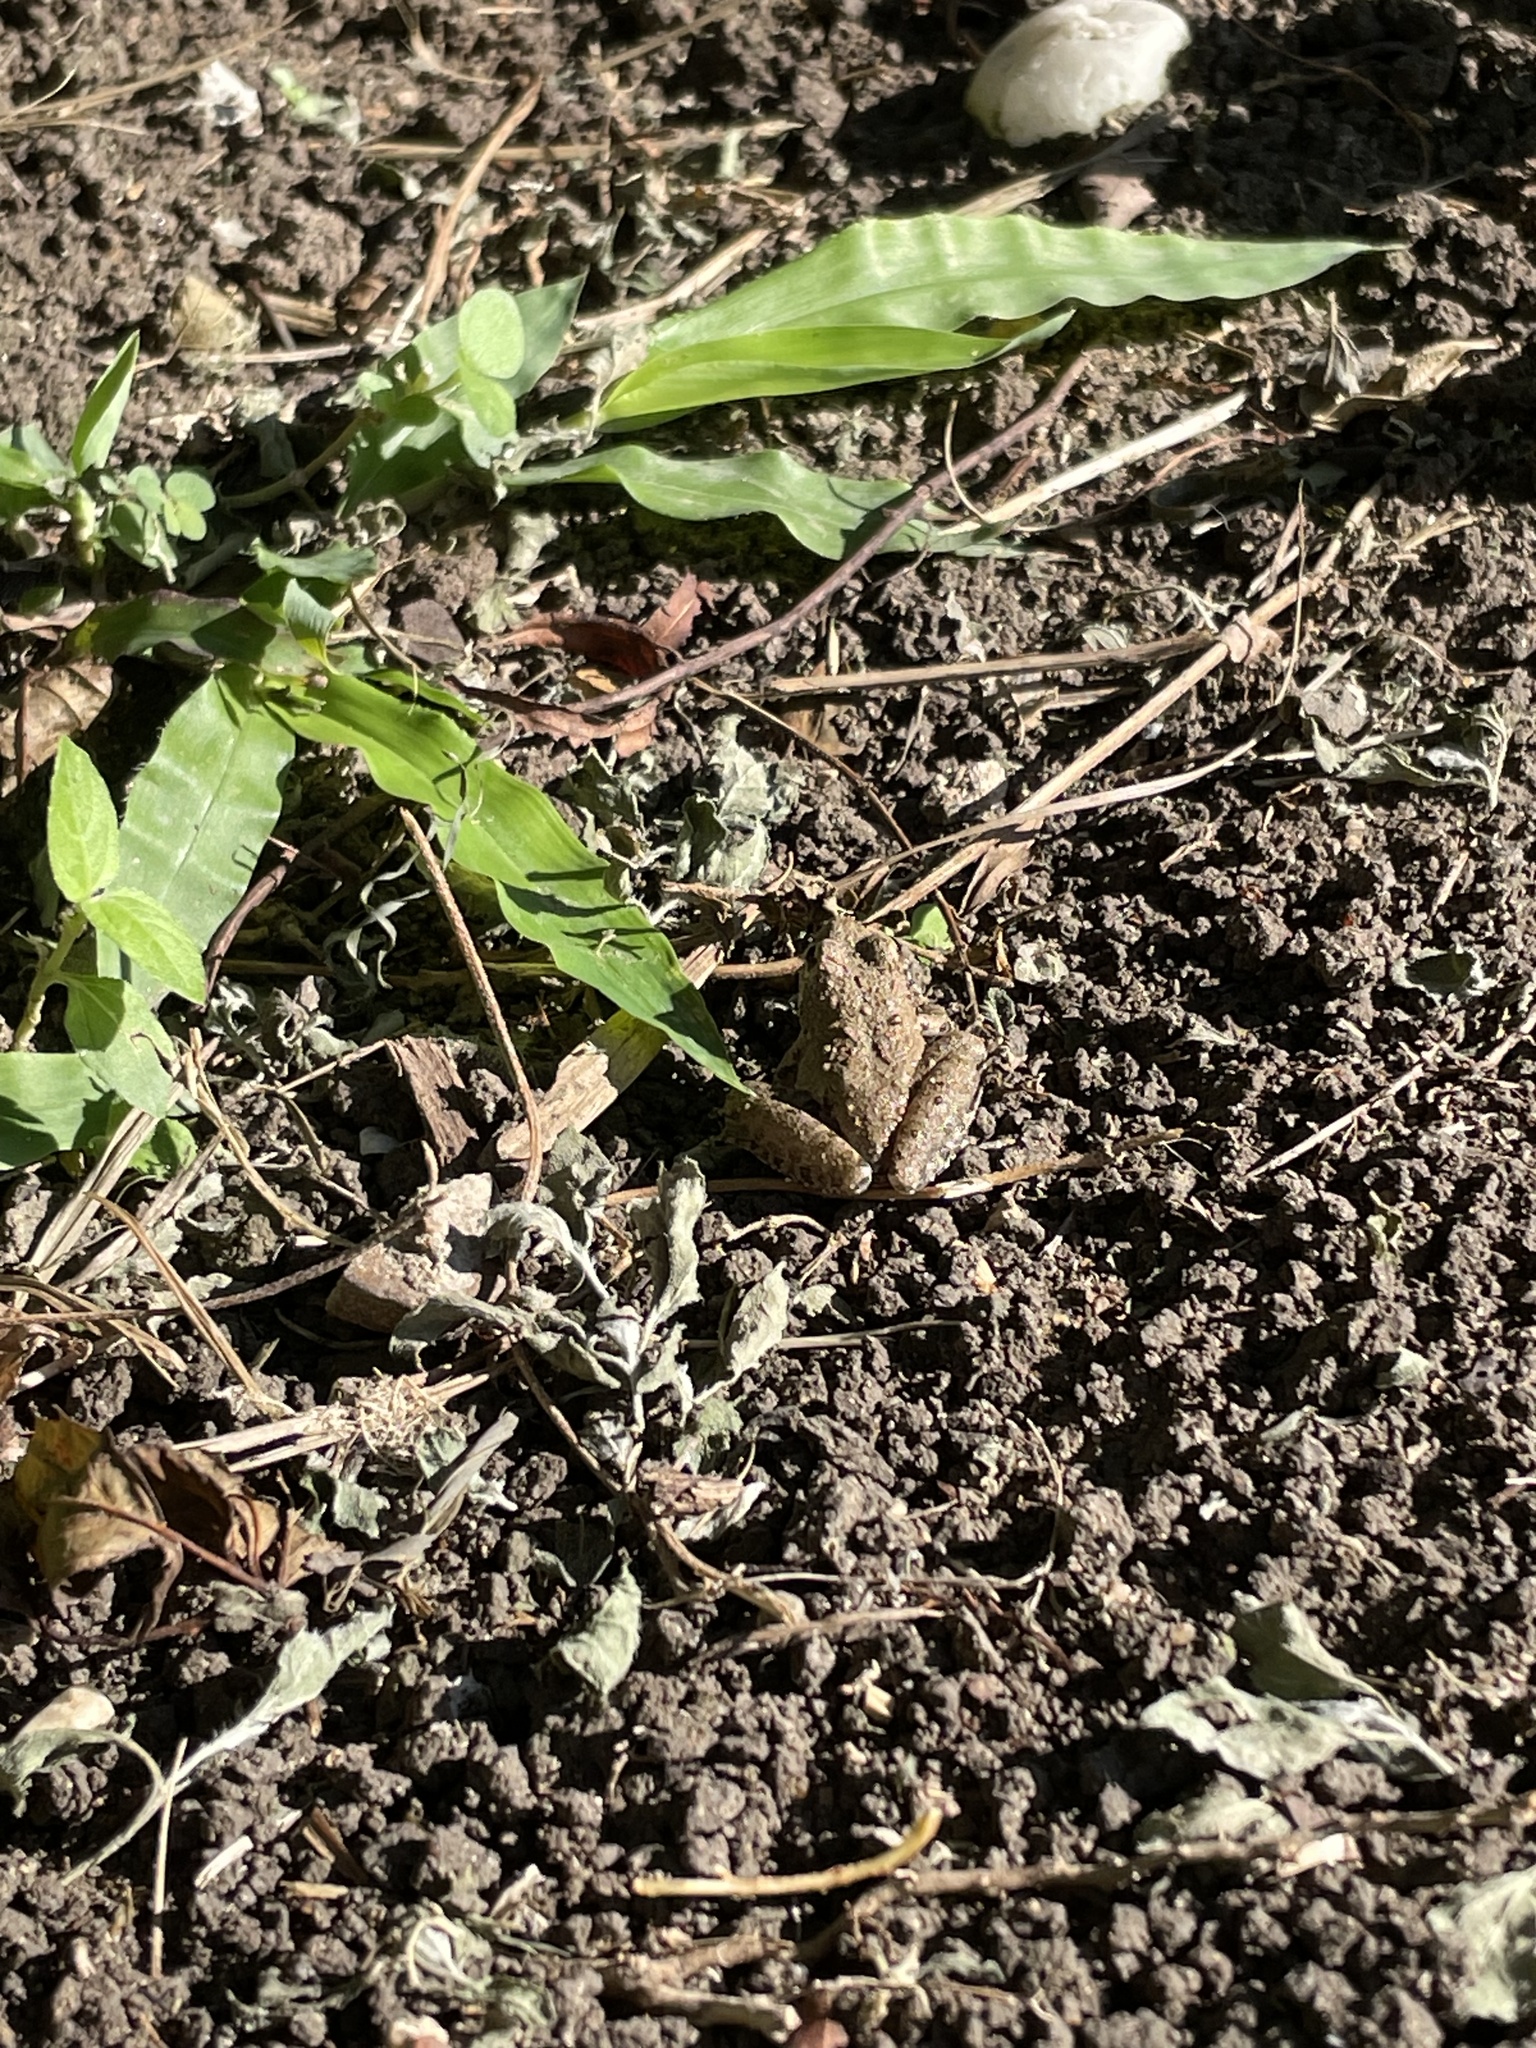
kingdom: Animalia
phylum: Chordata
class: Amphibia
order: Anura
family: Hylidae
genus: Acris
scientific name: Acris blanchardi
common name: Blanchard's cricket frog
